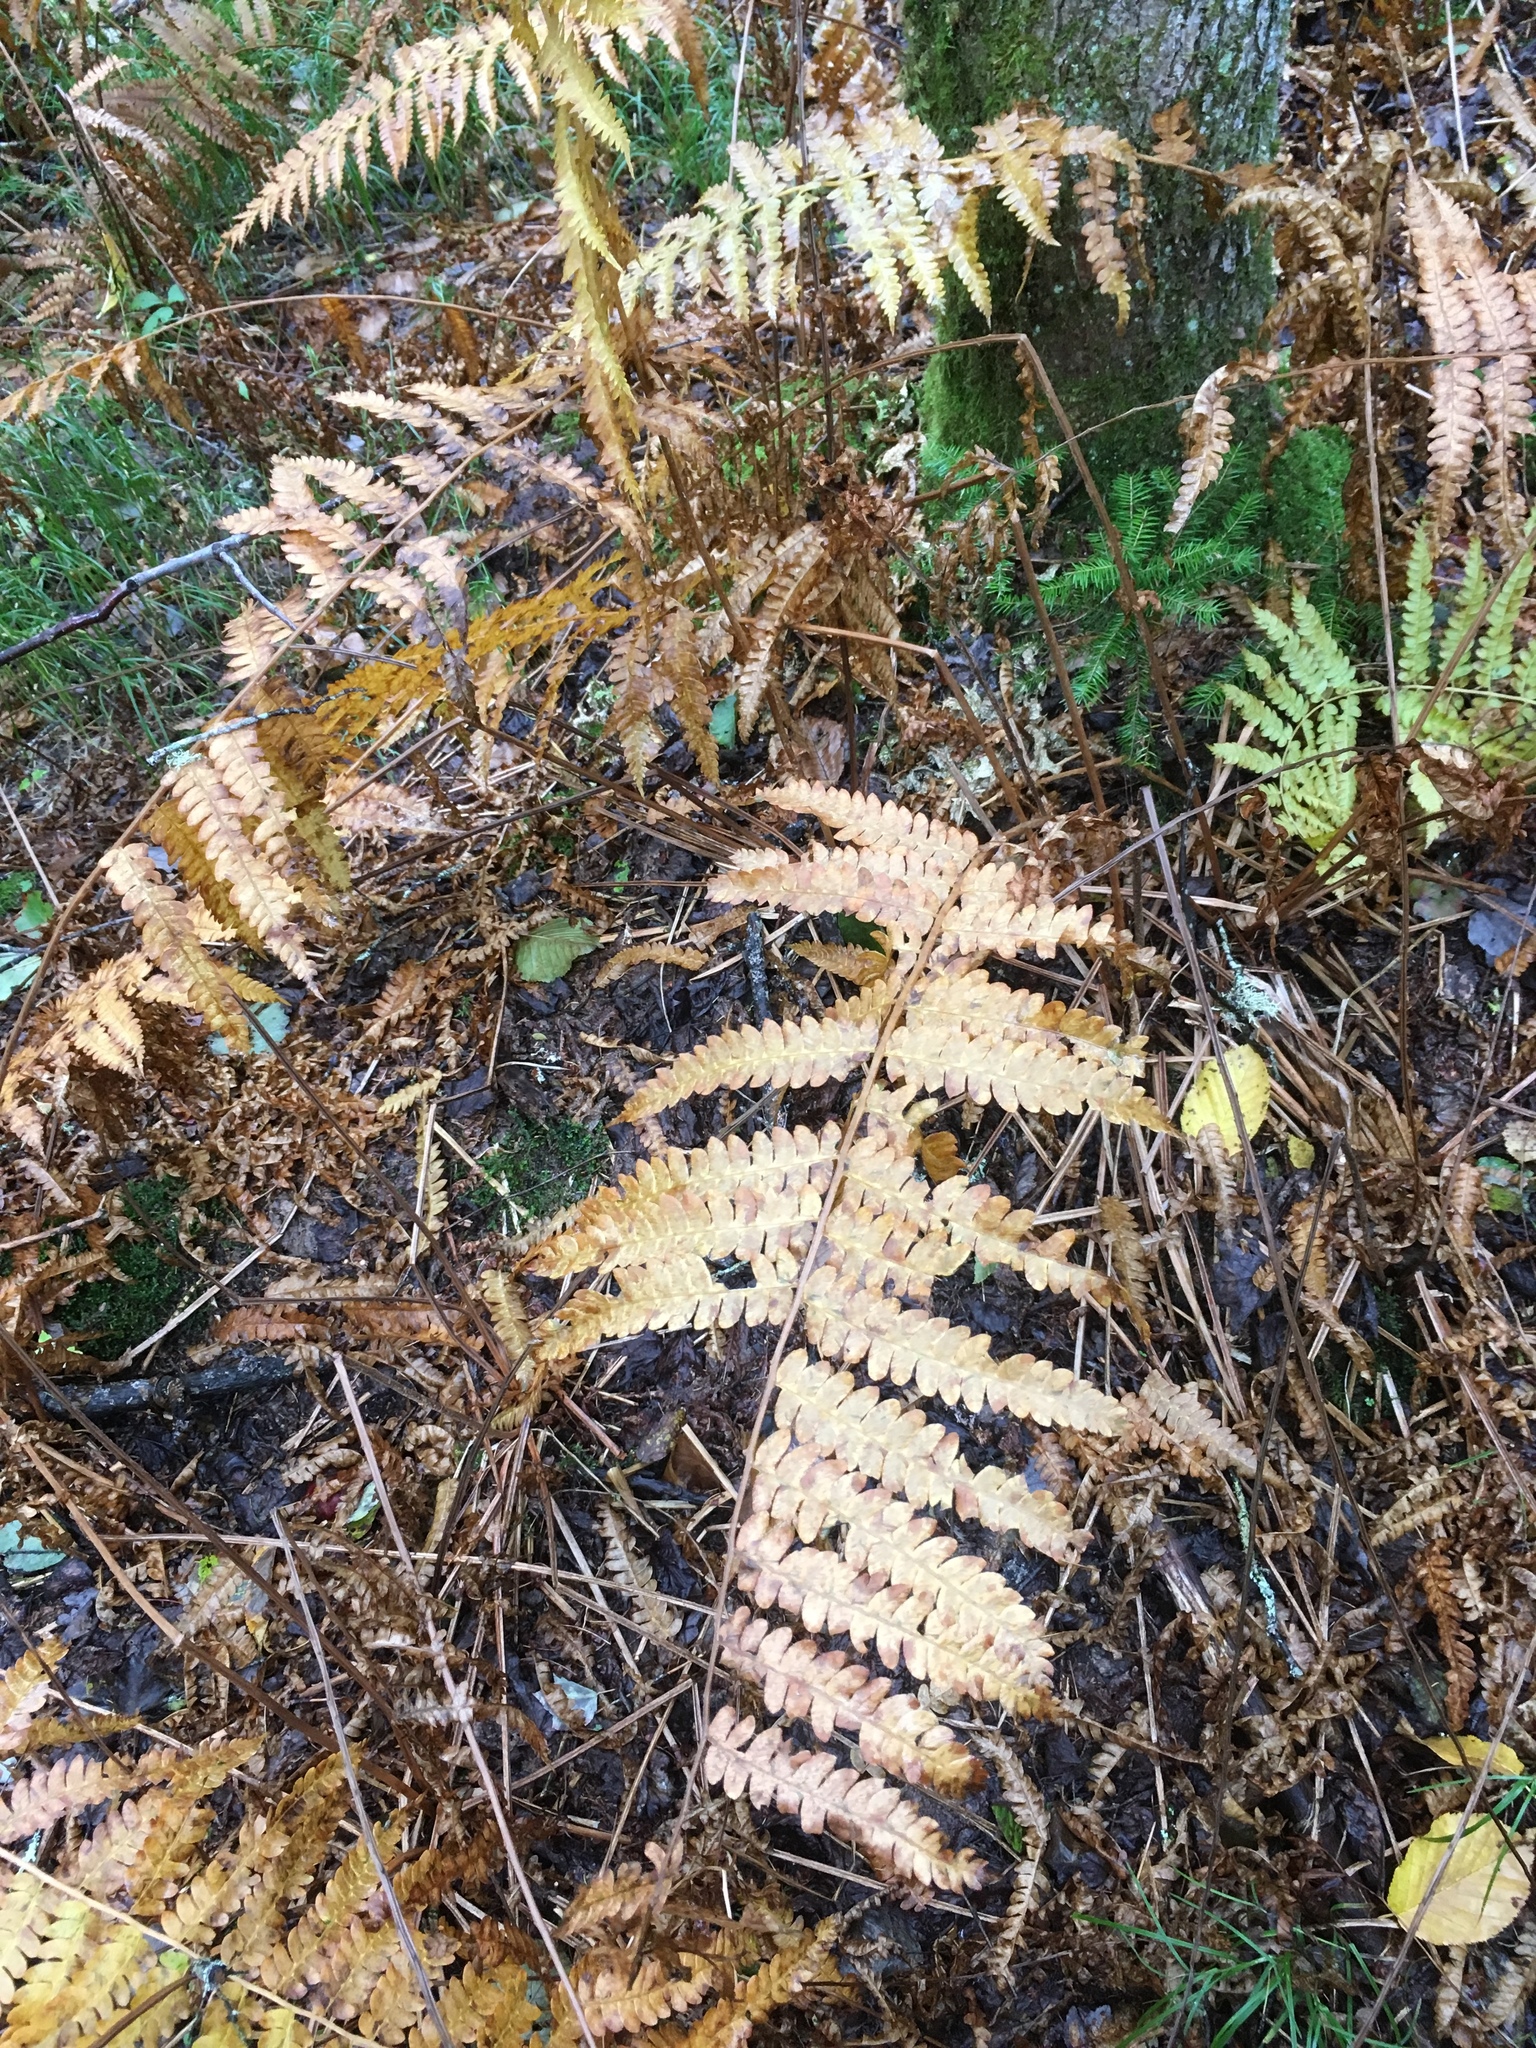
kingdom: Plantae
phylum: Tracheophyta
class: Polypodiopsida
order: Osmundales
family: Osmundaceae
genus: Osmundastrum
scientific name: Osmundastrum cinnamomeum
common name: Cinnamon fern
